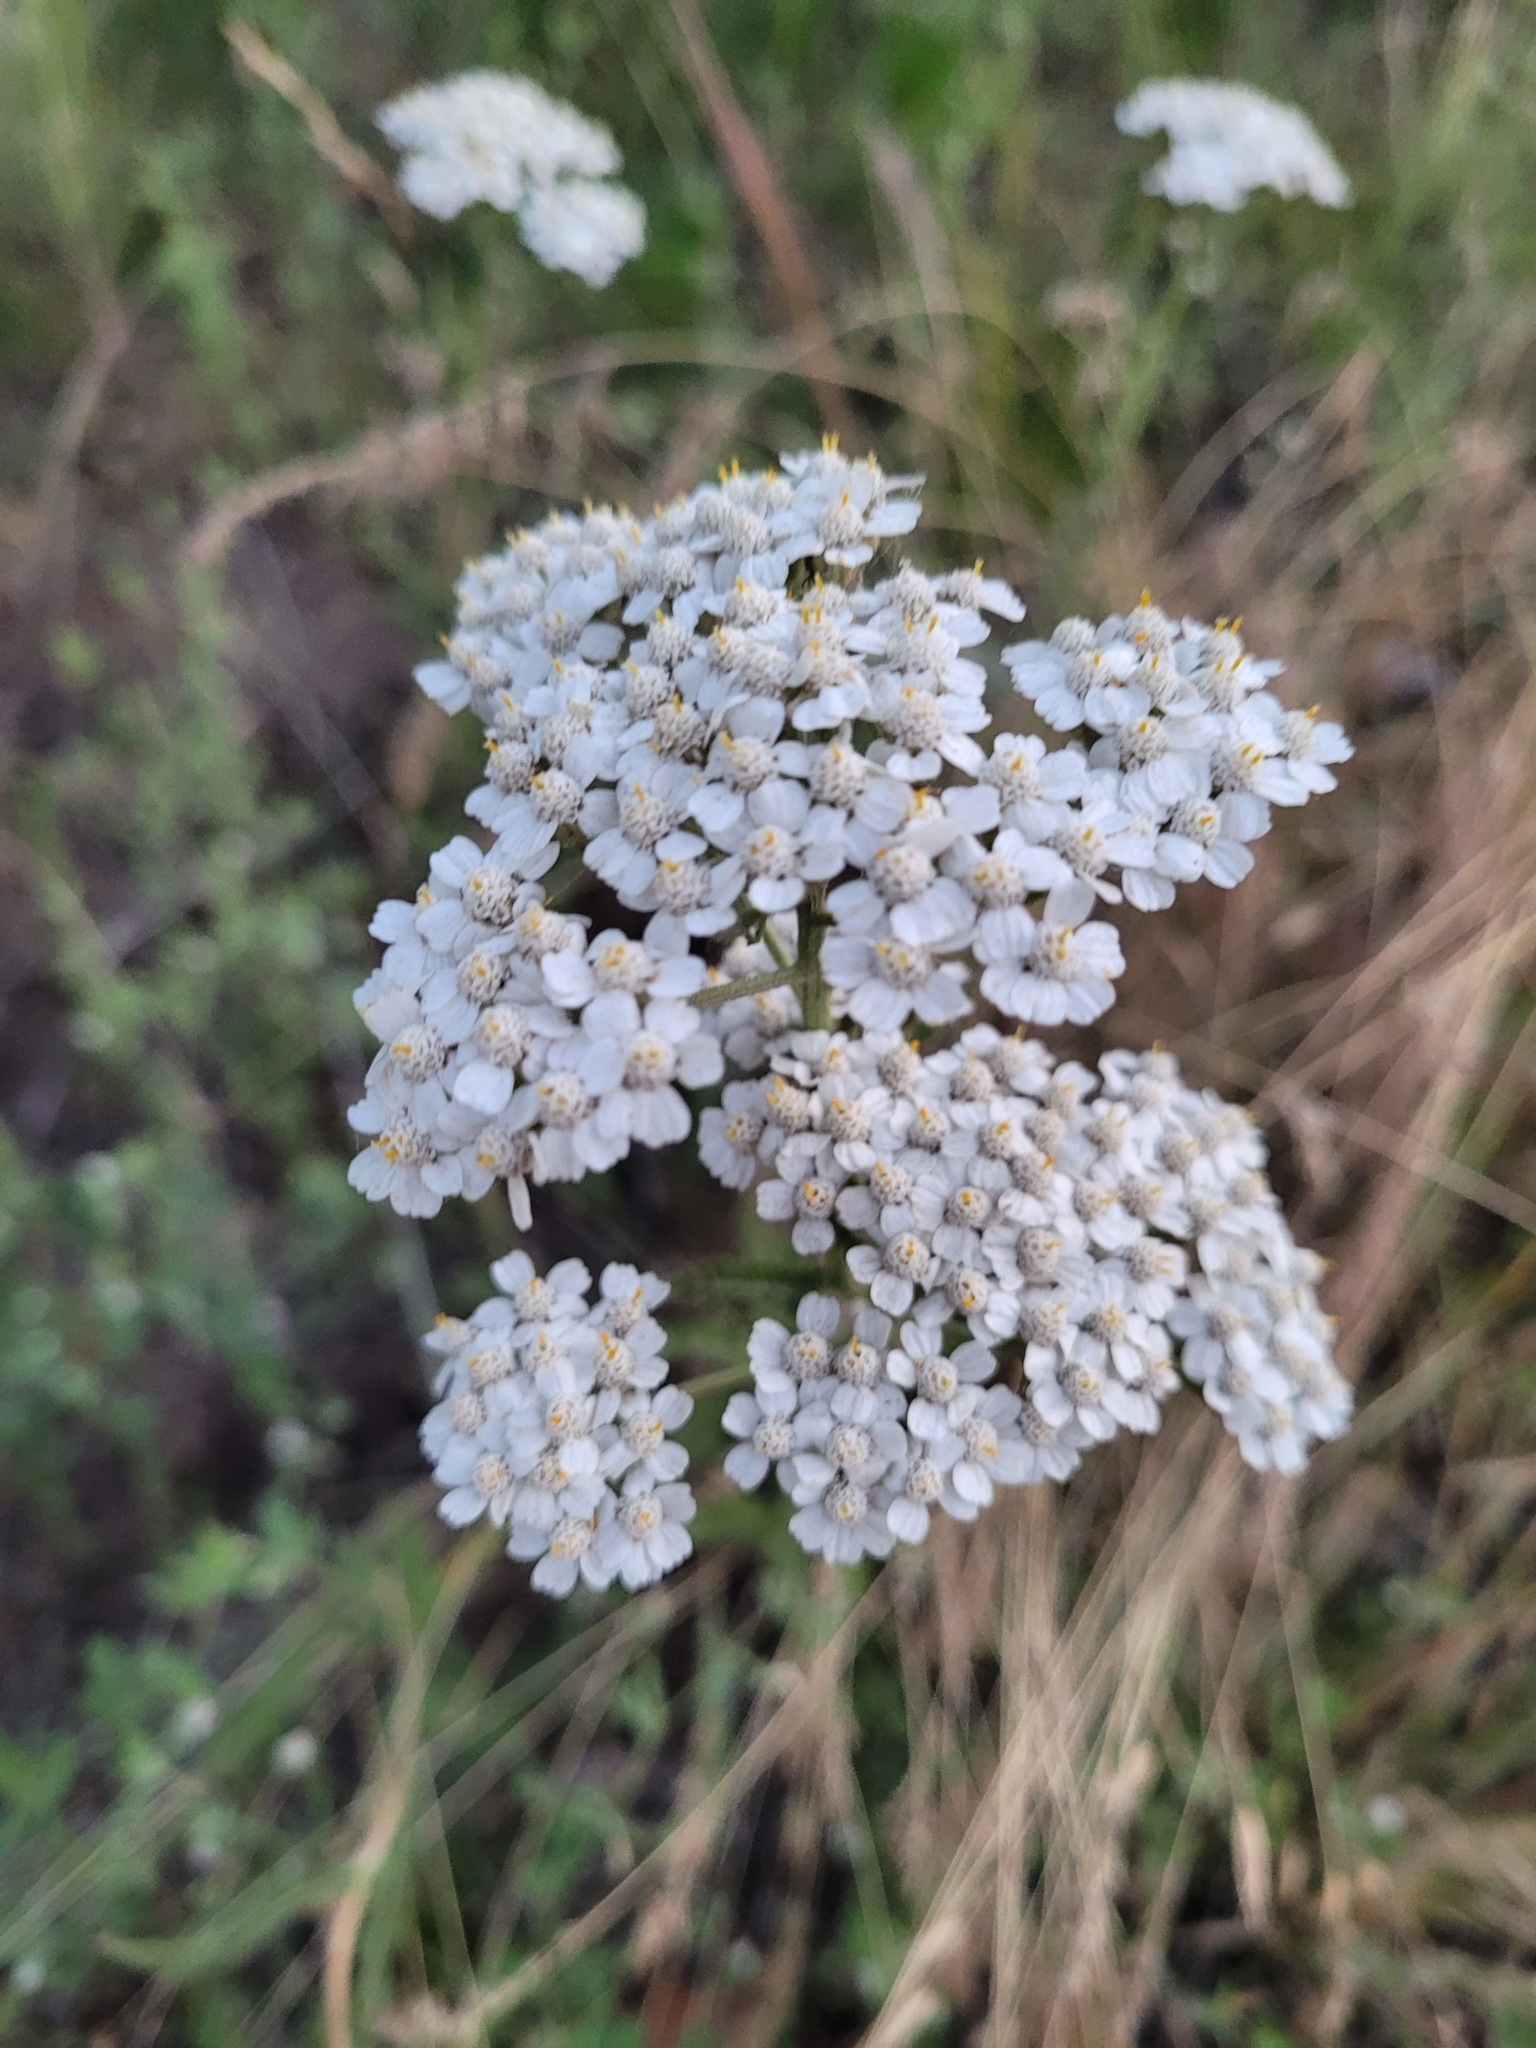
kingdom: Plantae
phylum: Tracheophyta
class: Magnoliopsida
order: Asterales
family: Asteraceae
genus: Achillea
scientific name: Achillea millefolium
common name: Yarrow
